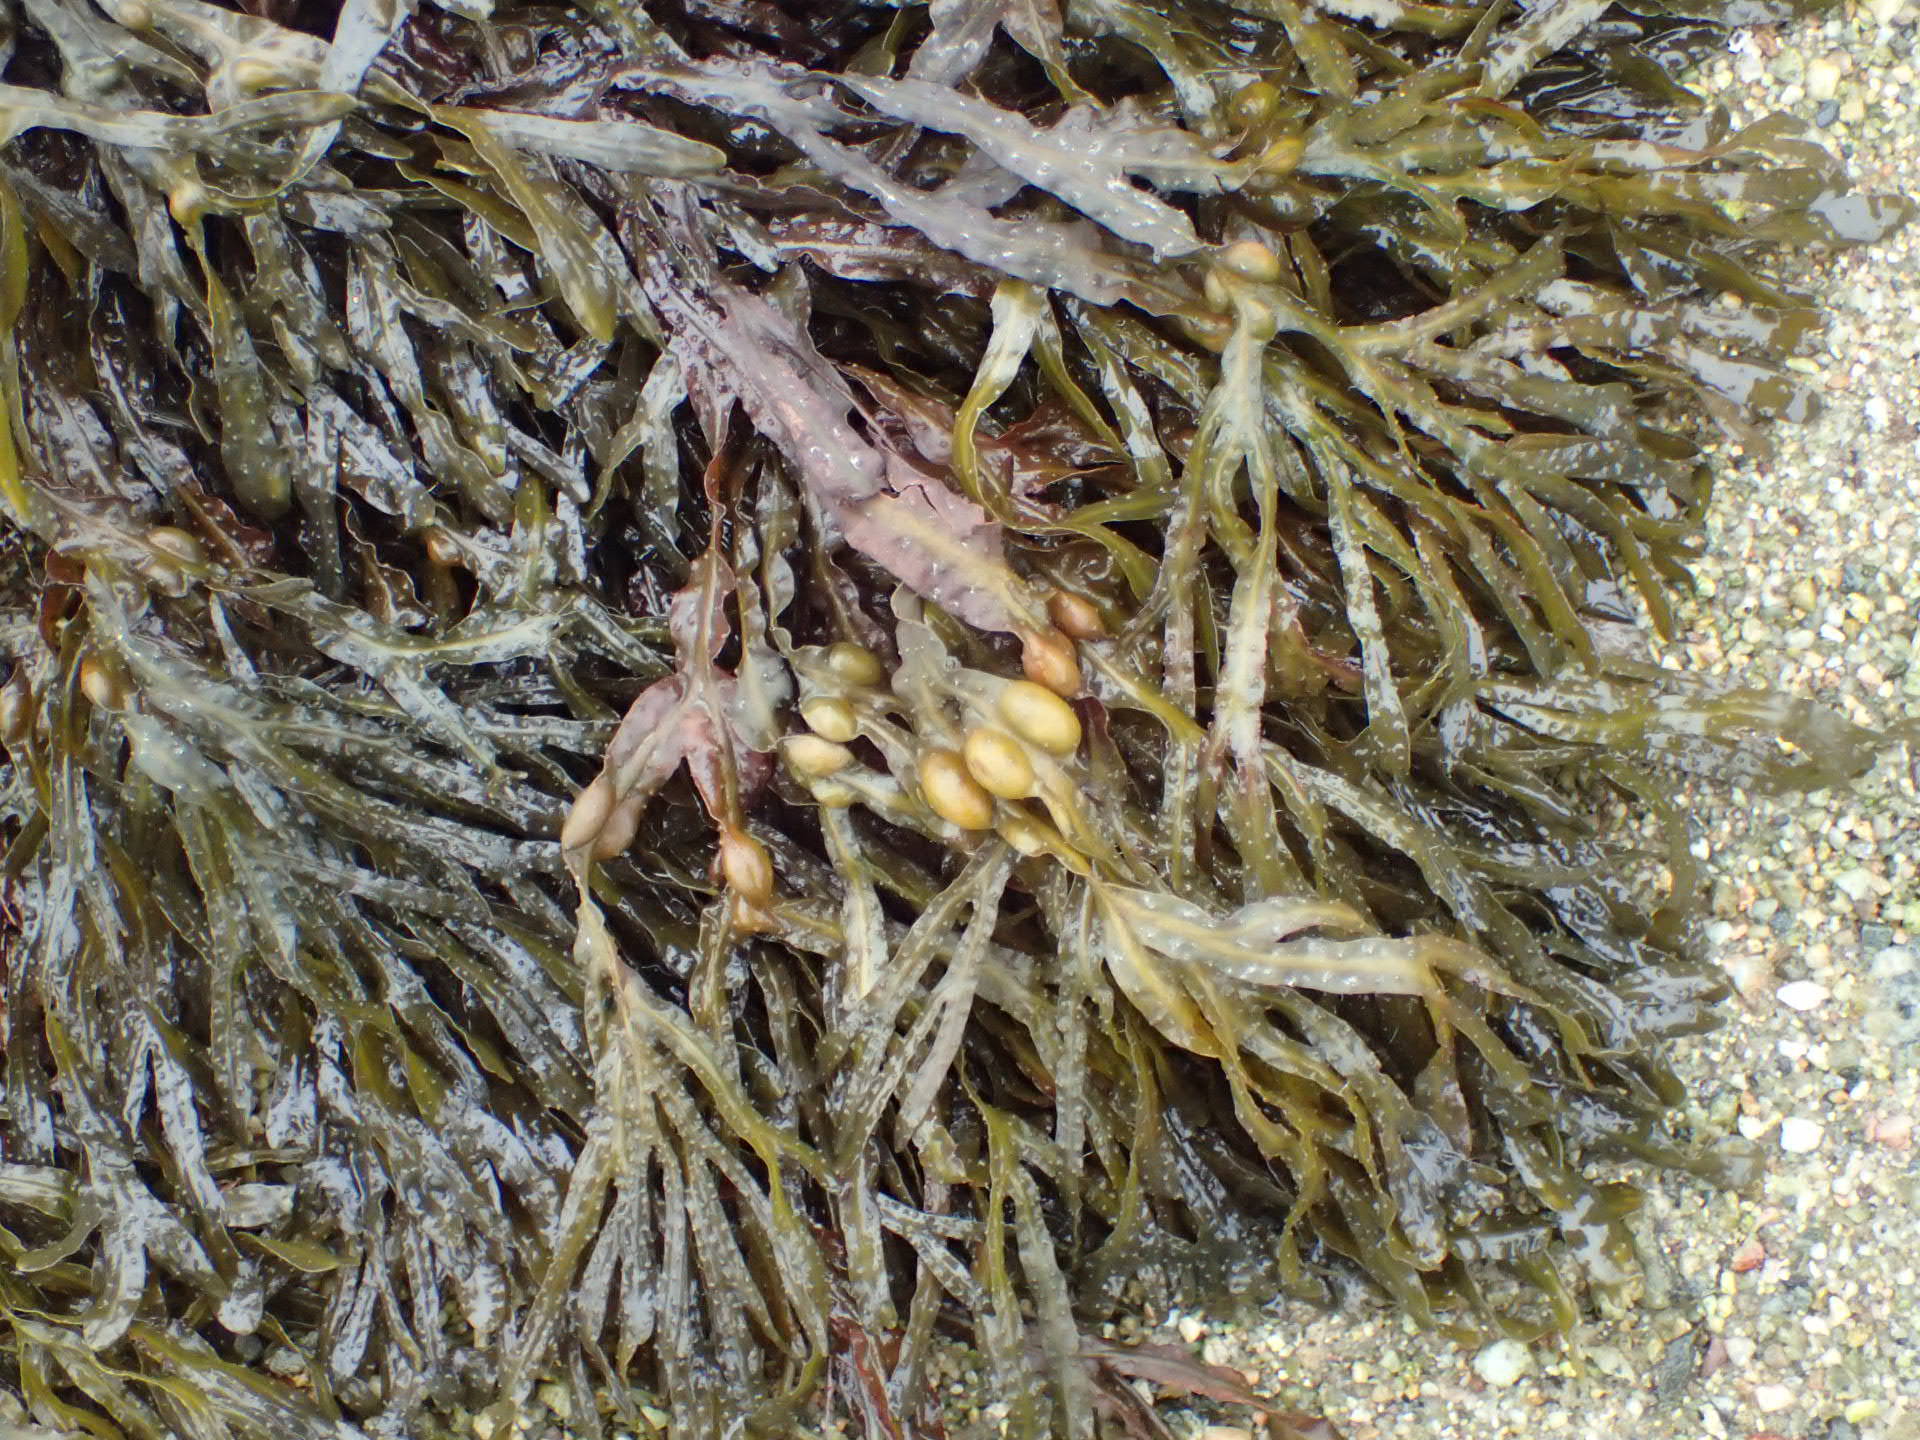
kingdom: Chromista
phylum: Ochrophyta
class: Phaeophyceae
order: Fucales
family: Fucaceae
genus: Fucus
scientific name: Fucus vesiculosus
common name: Bladder wrack
